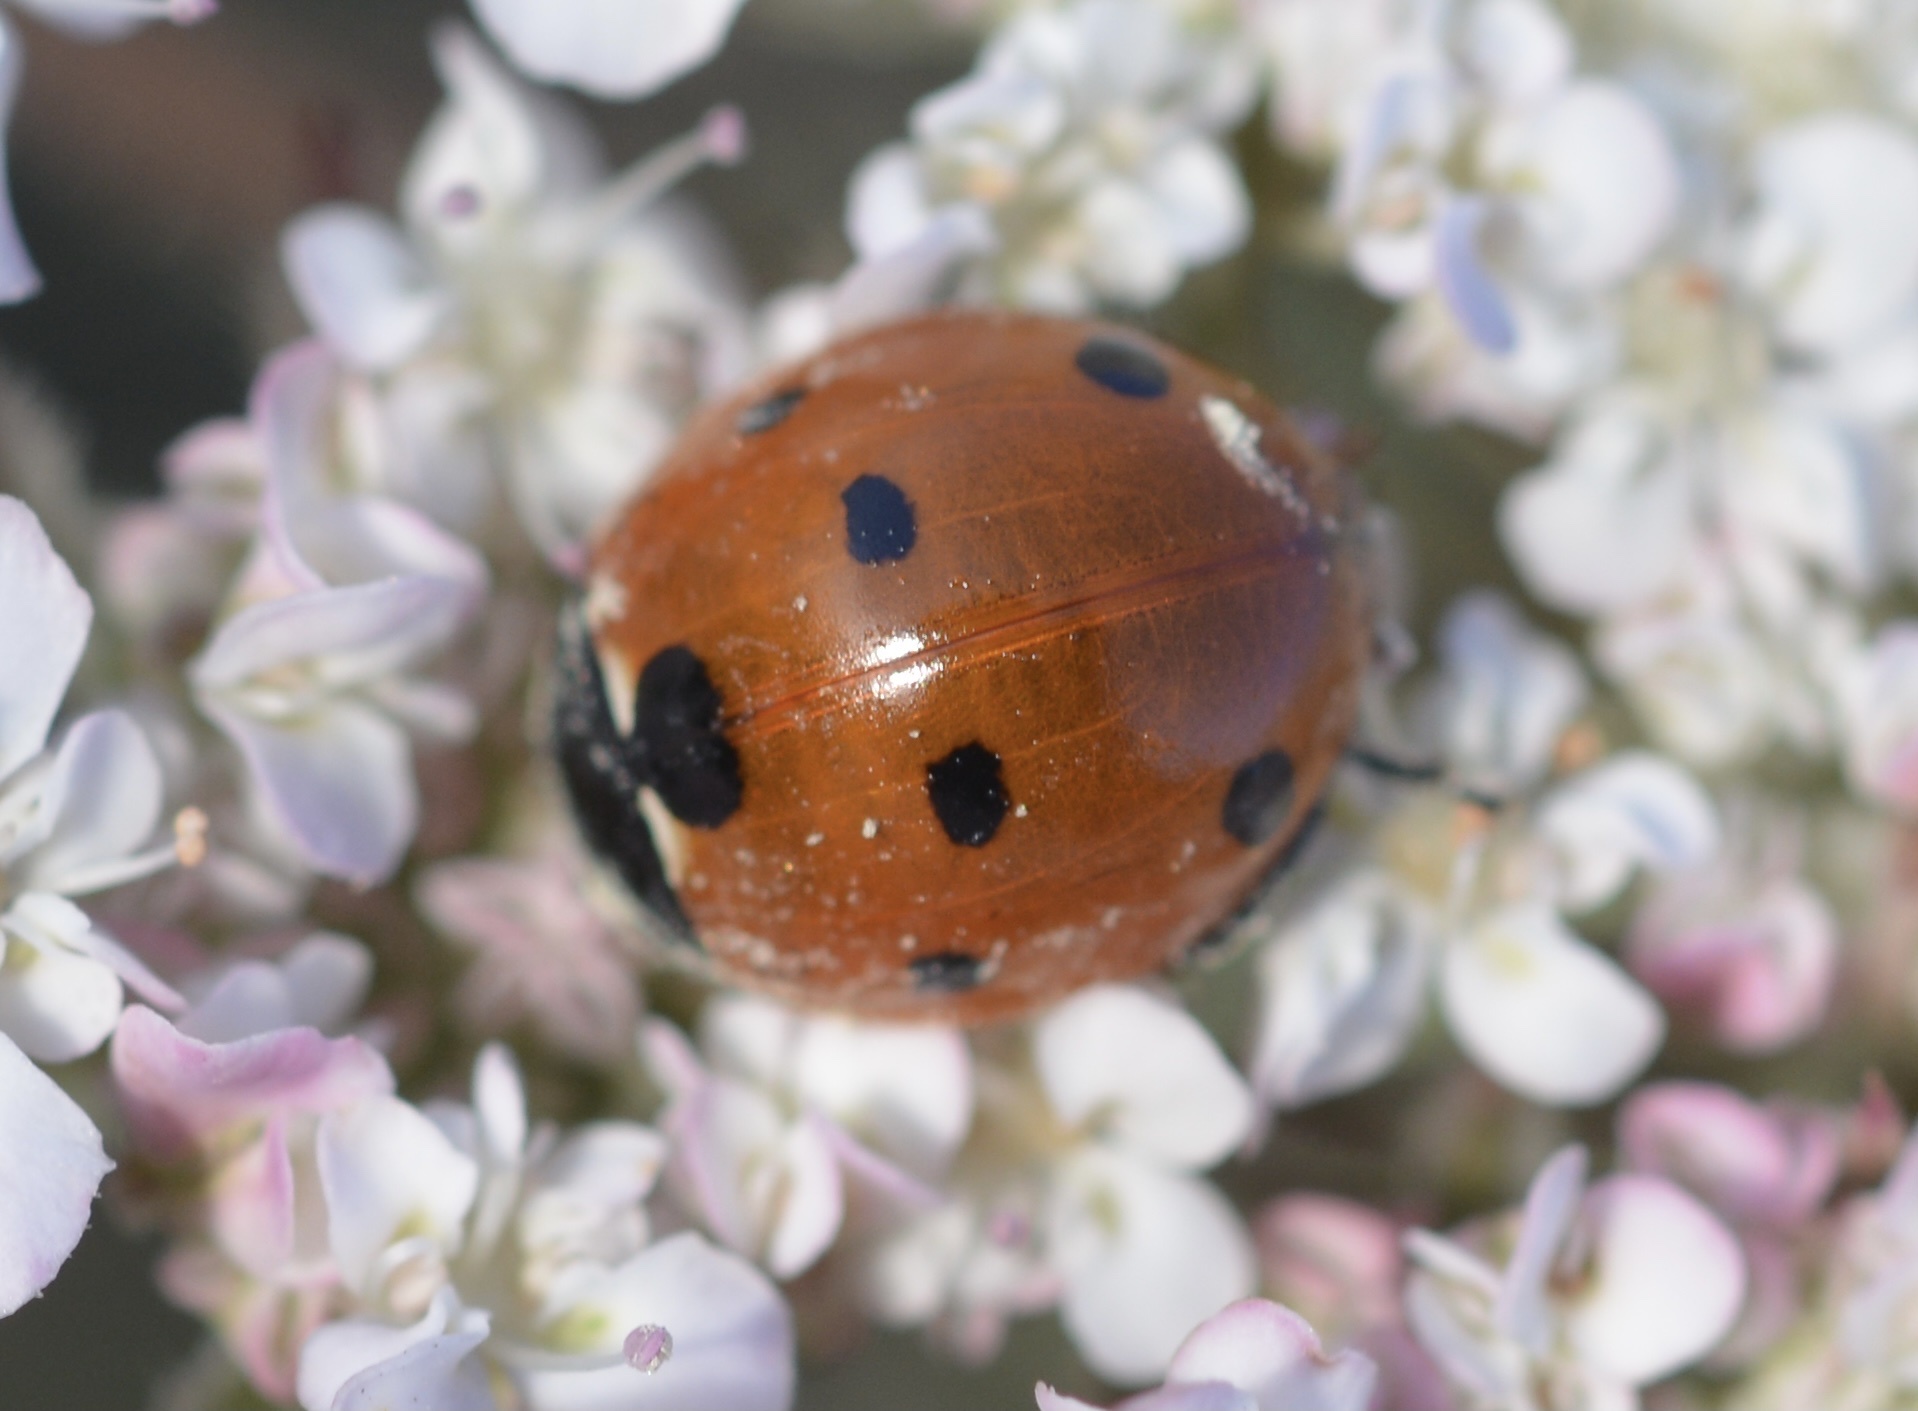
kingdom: Animalia
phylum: Arthropoda
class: Insecta
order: Coleoptera
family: Coccinellidae
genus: Coccinella
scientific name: Coccinella septempunctata
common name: Sevenspotted lady beetle
